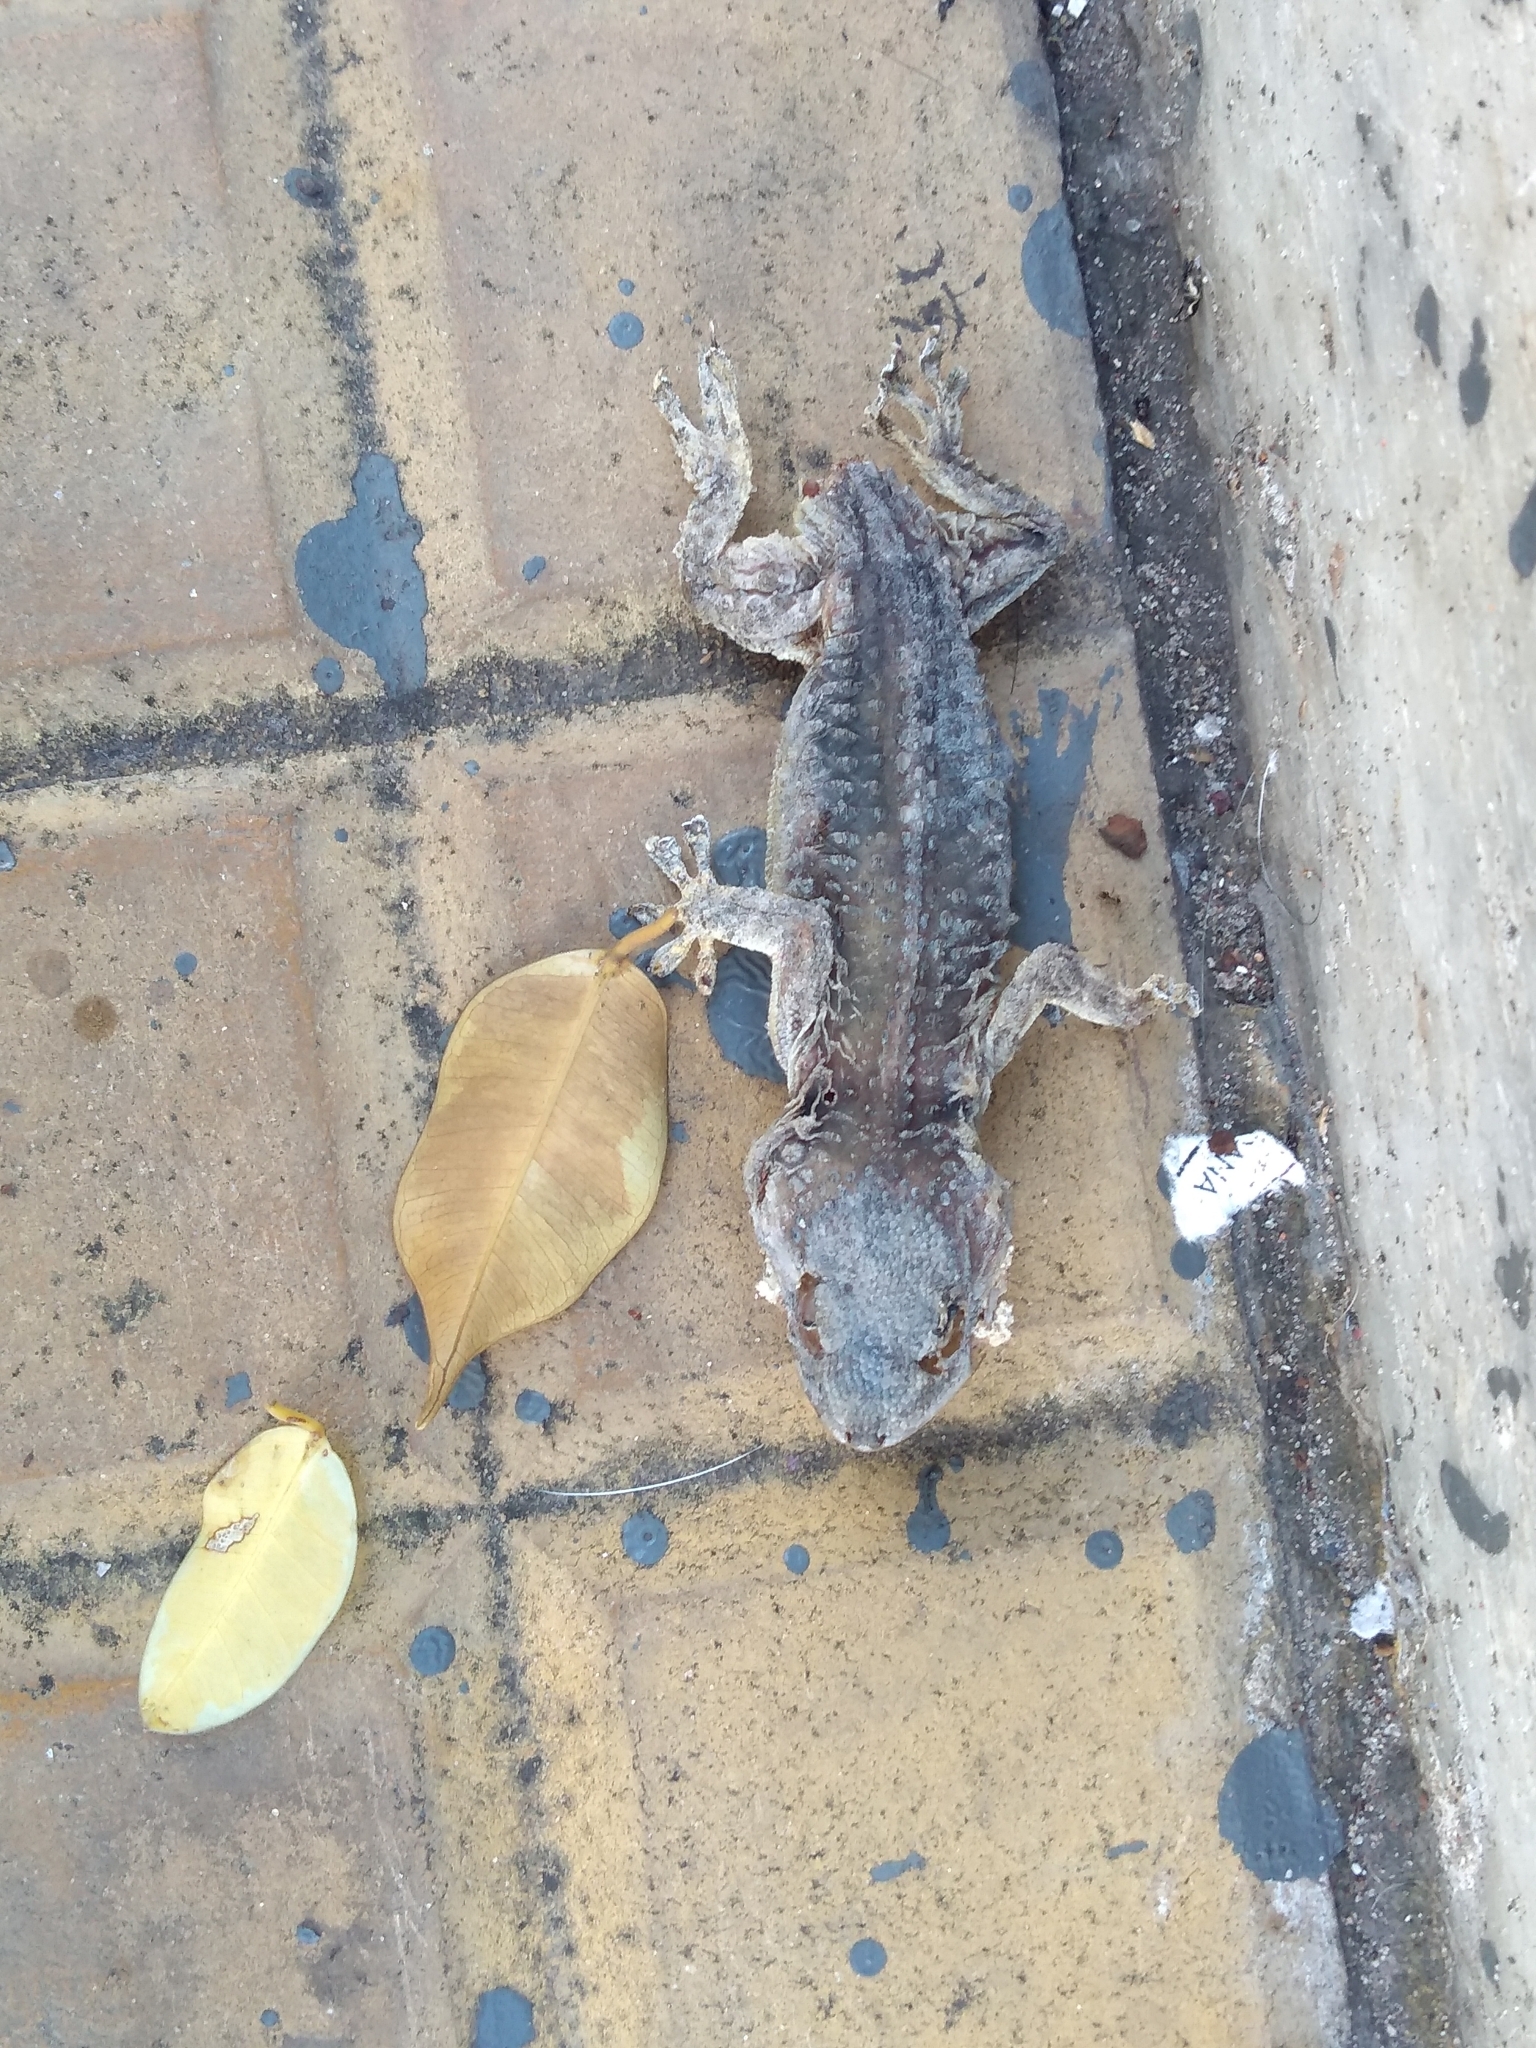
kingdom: Animalia
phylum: Chordata
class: Squamata
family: Phyllodactylidae
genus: Tarentola
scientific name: Tarentola mauritanica
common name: Moorish gecko
